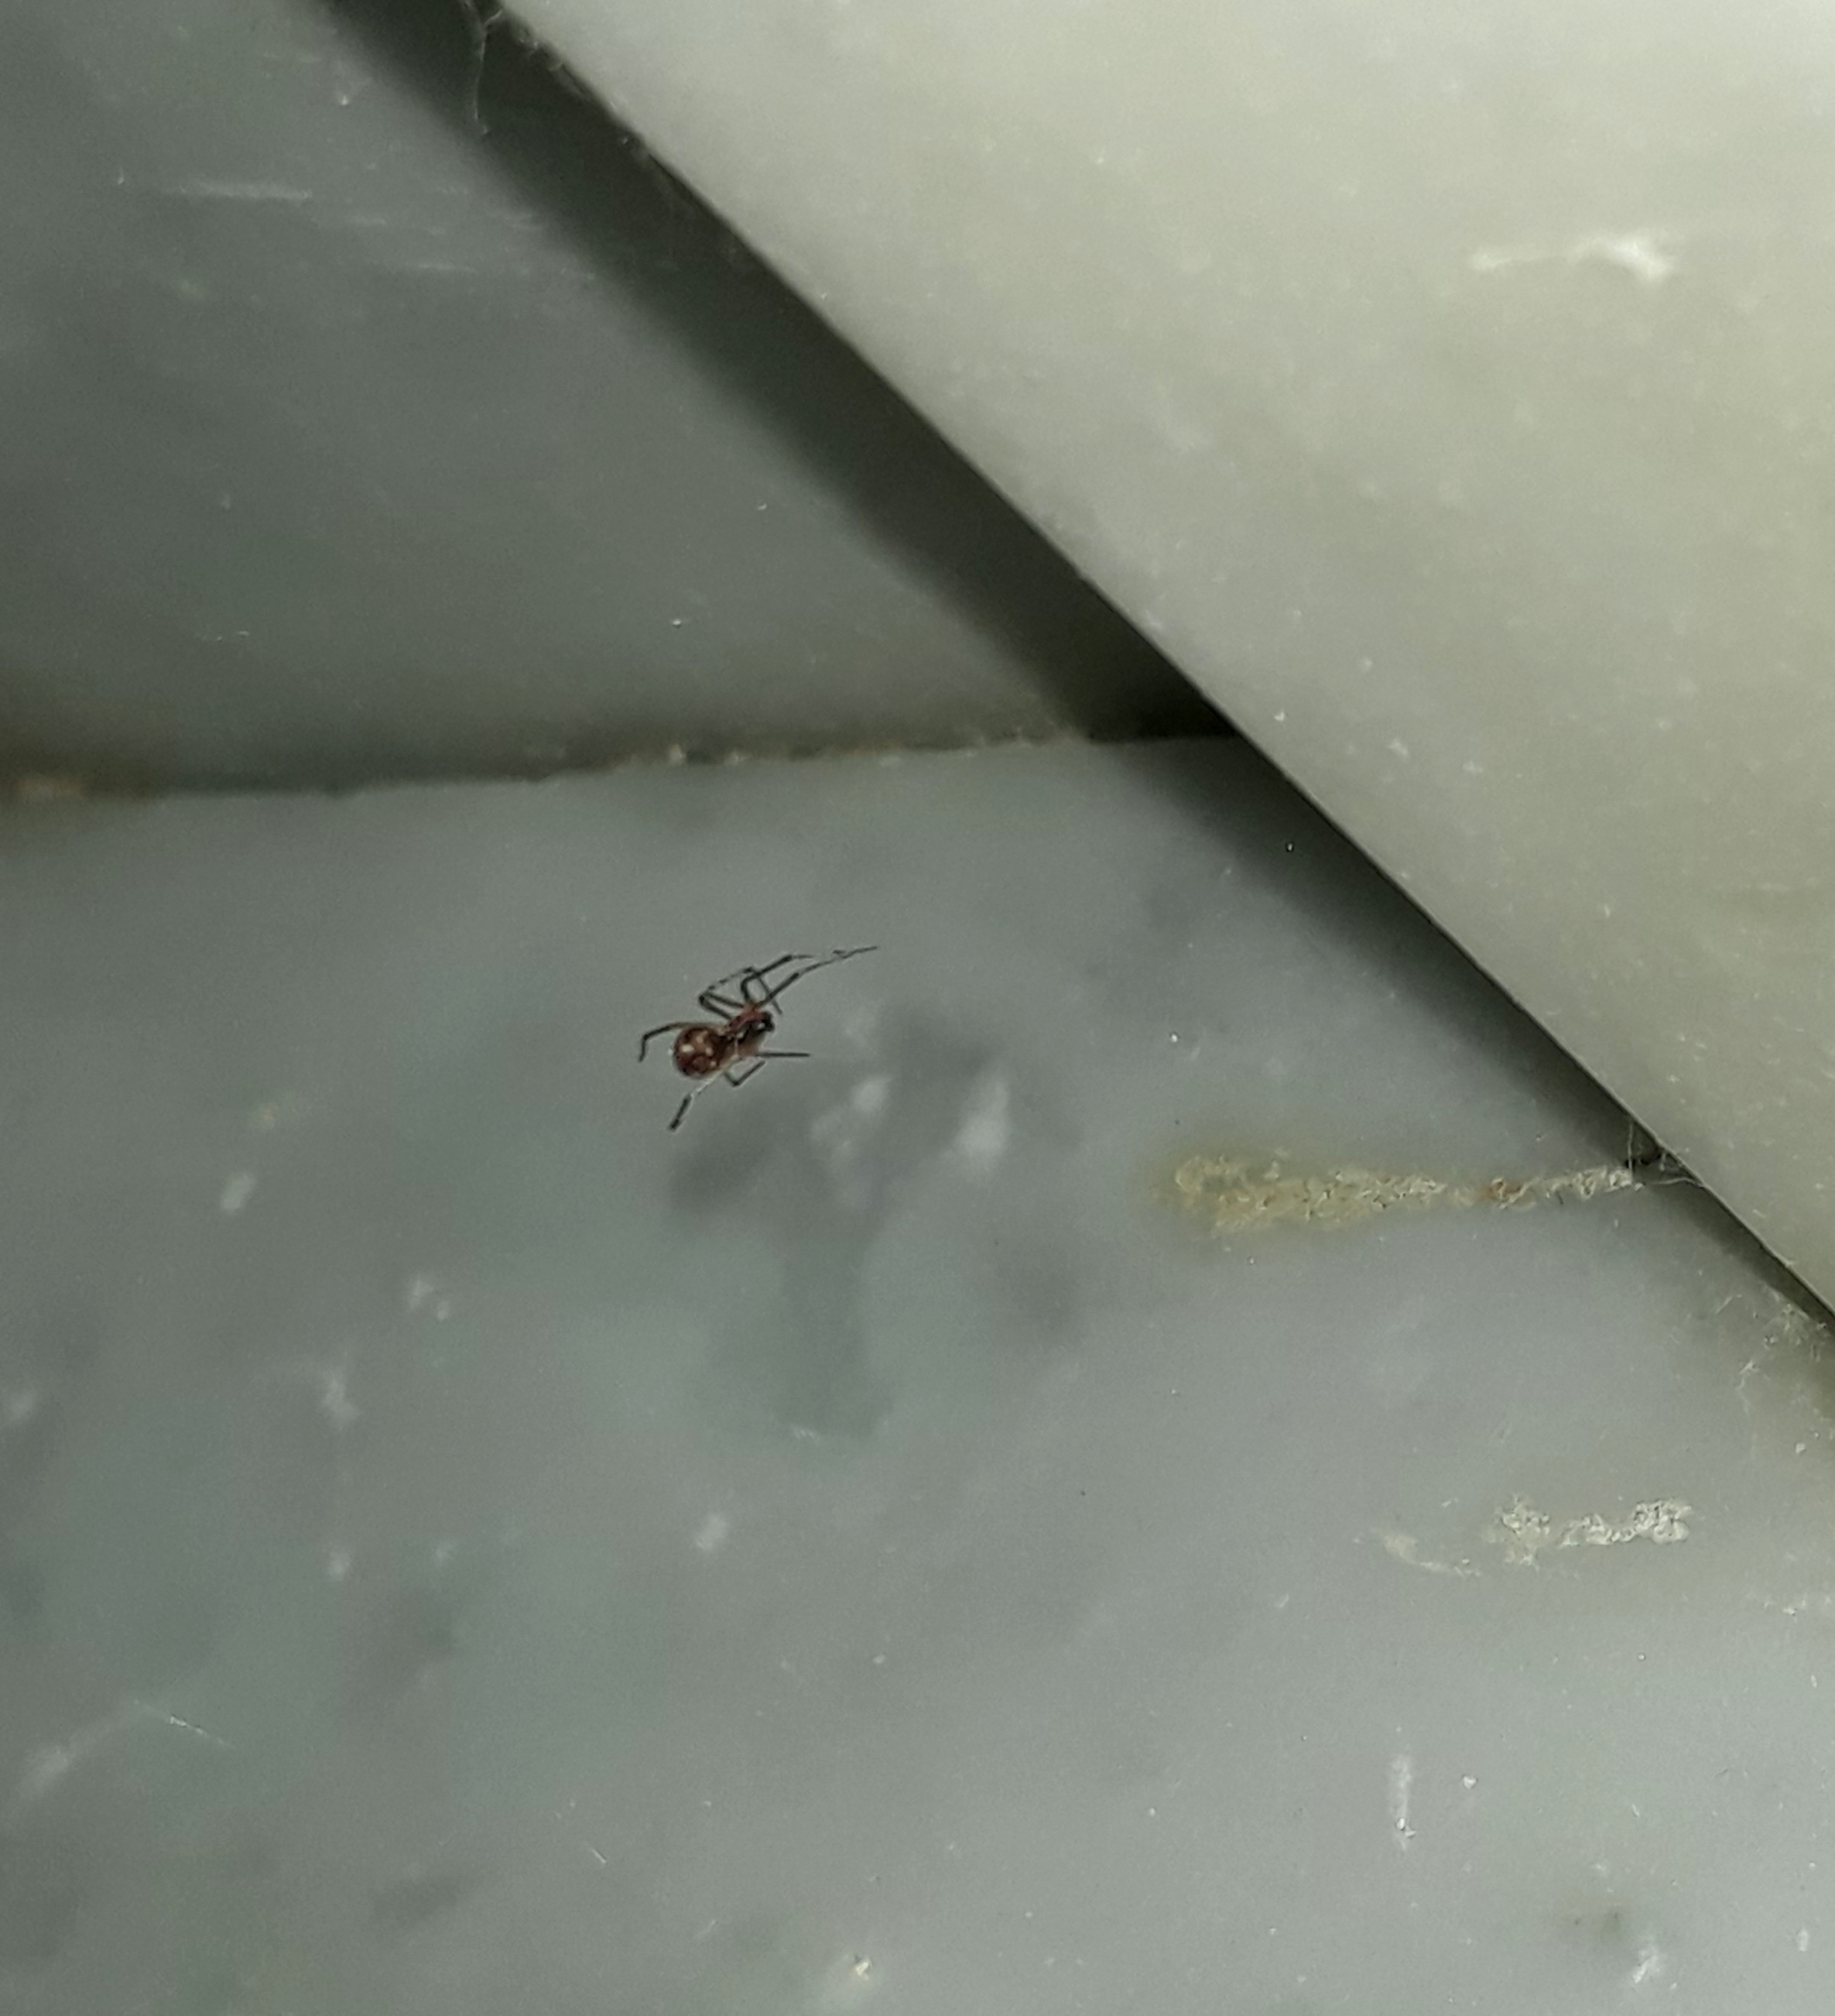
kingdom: Animalia
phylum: Arthropoda
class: Arachnida
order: Araneae
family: Theridiidae
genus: Steatoda
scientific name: Steatoda triangulosa
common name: Triangulate bud spider
